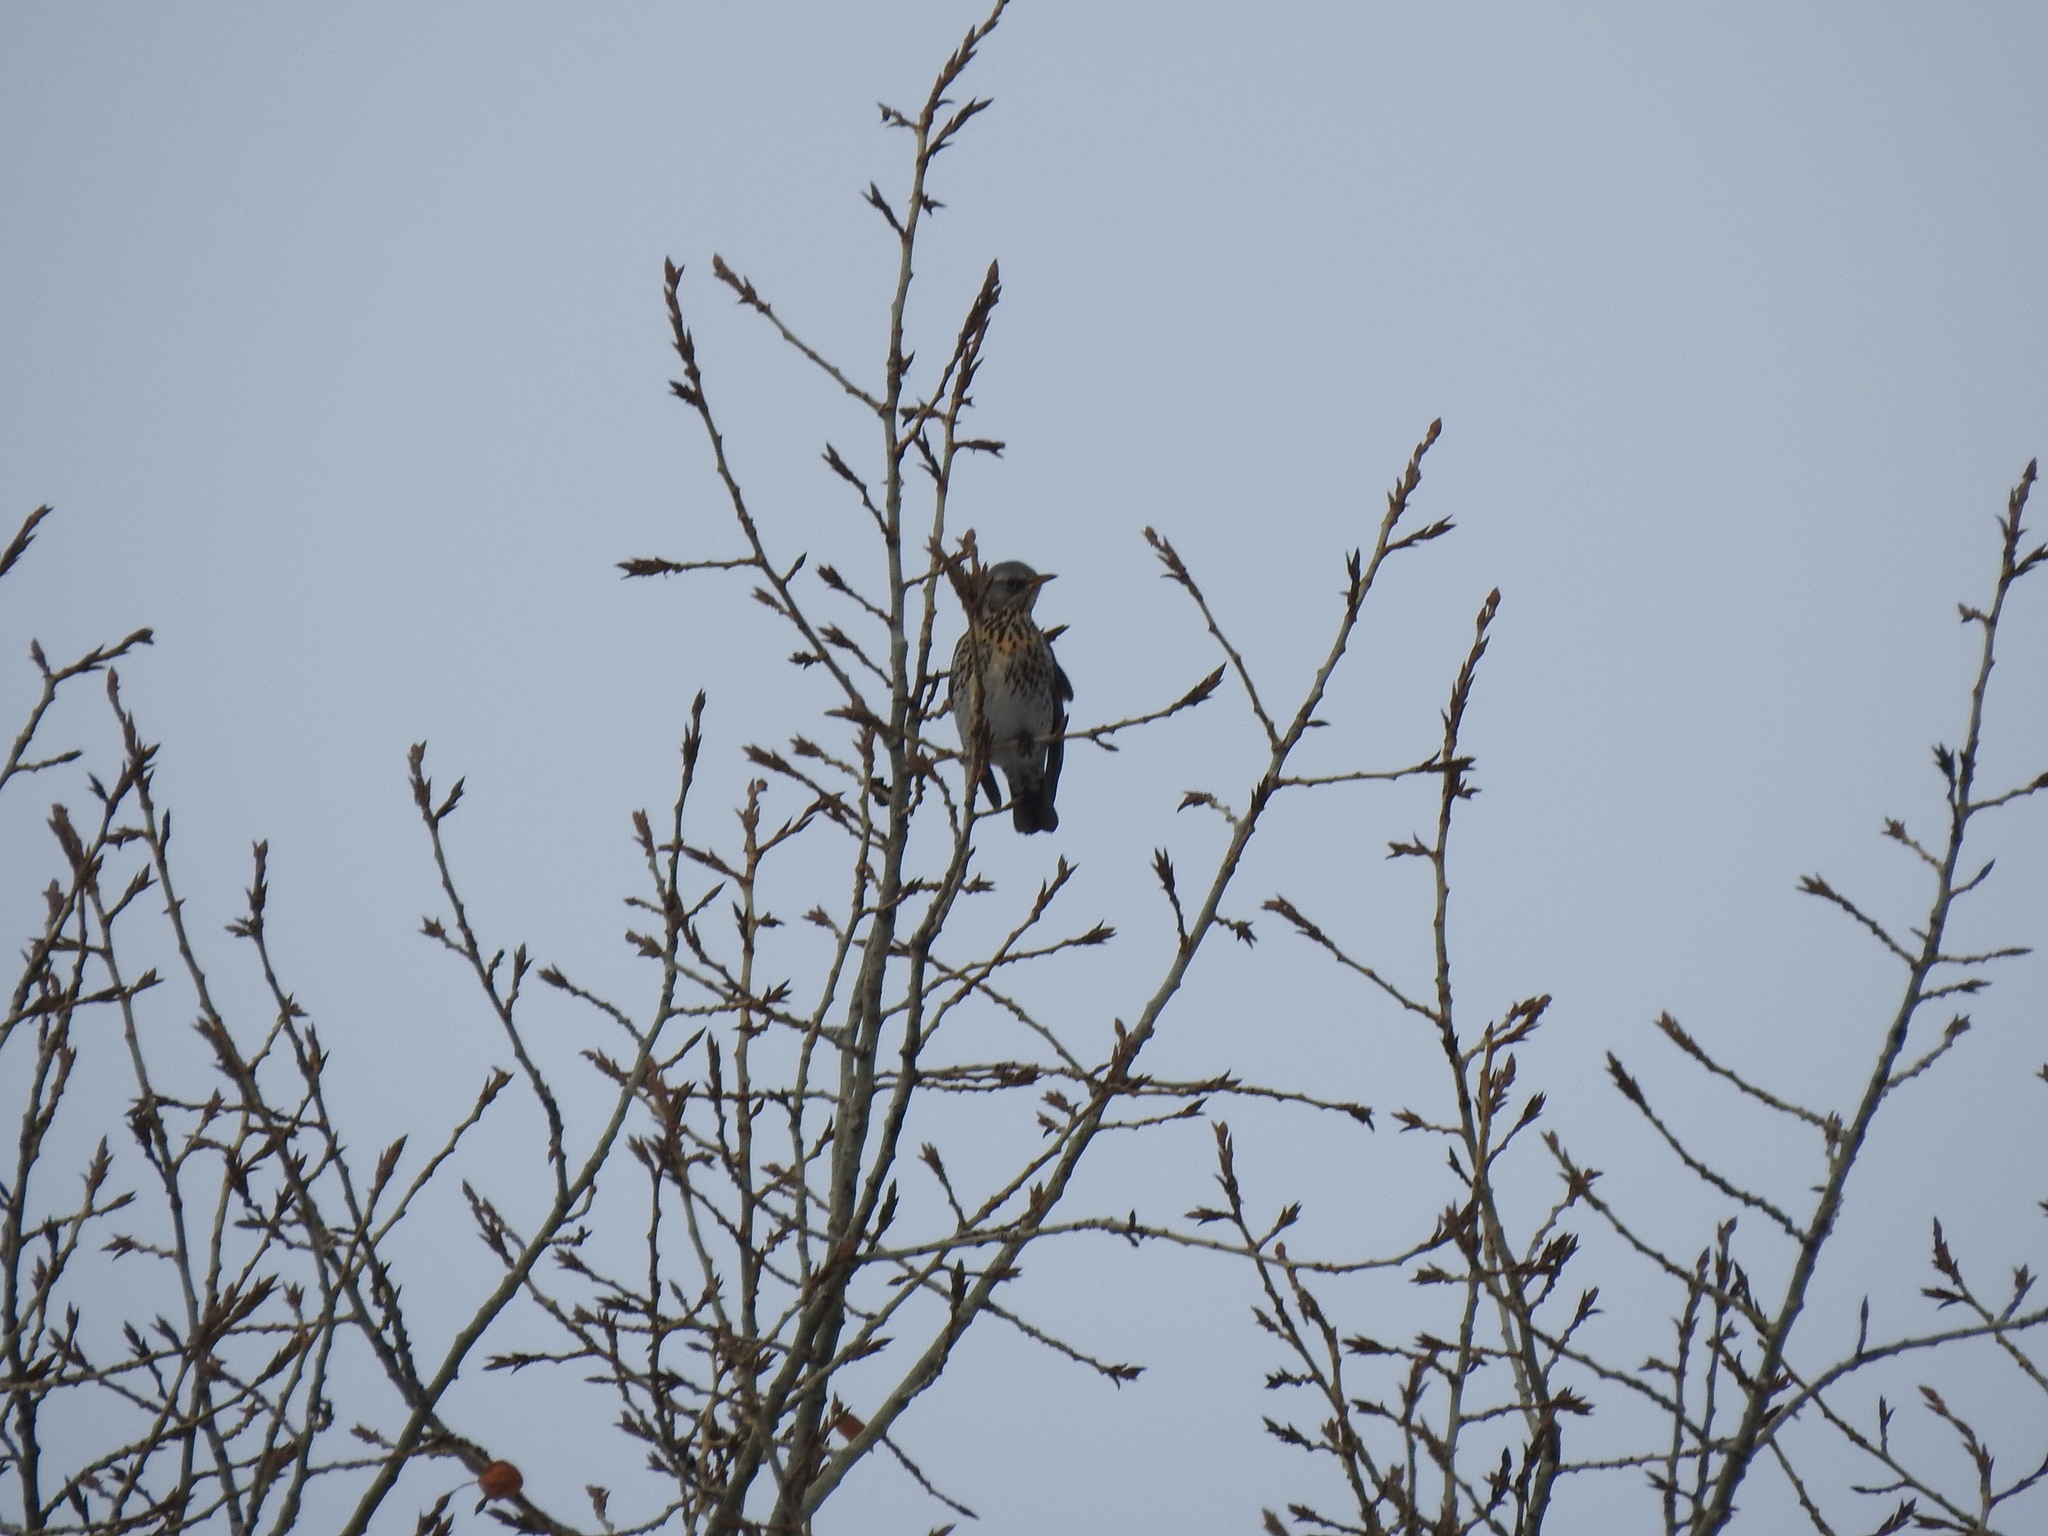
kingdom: Animalia
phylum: Chordata
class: Aves
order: Passeriformes
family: Turdidae
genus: Turdus
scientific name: Turdus pilaris
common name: Fieldfare
